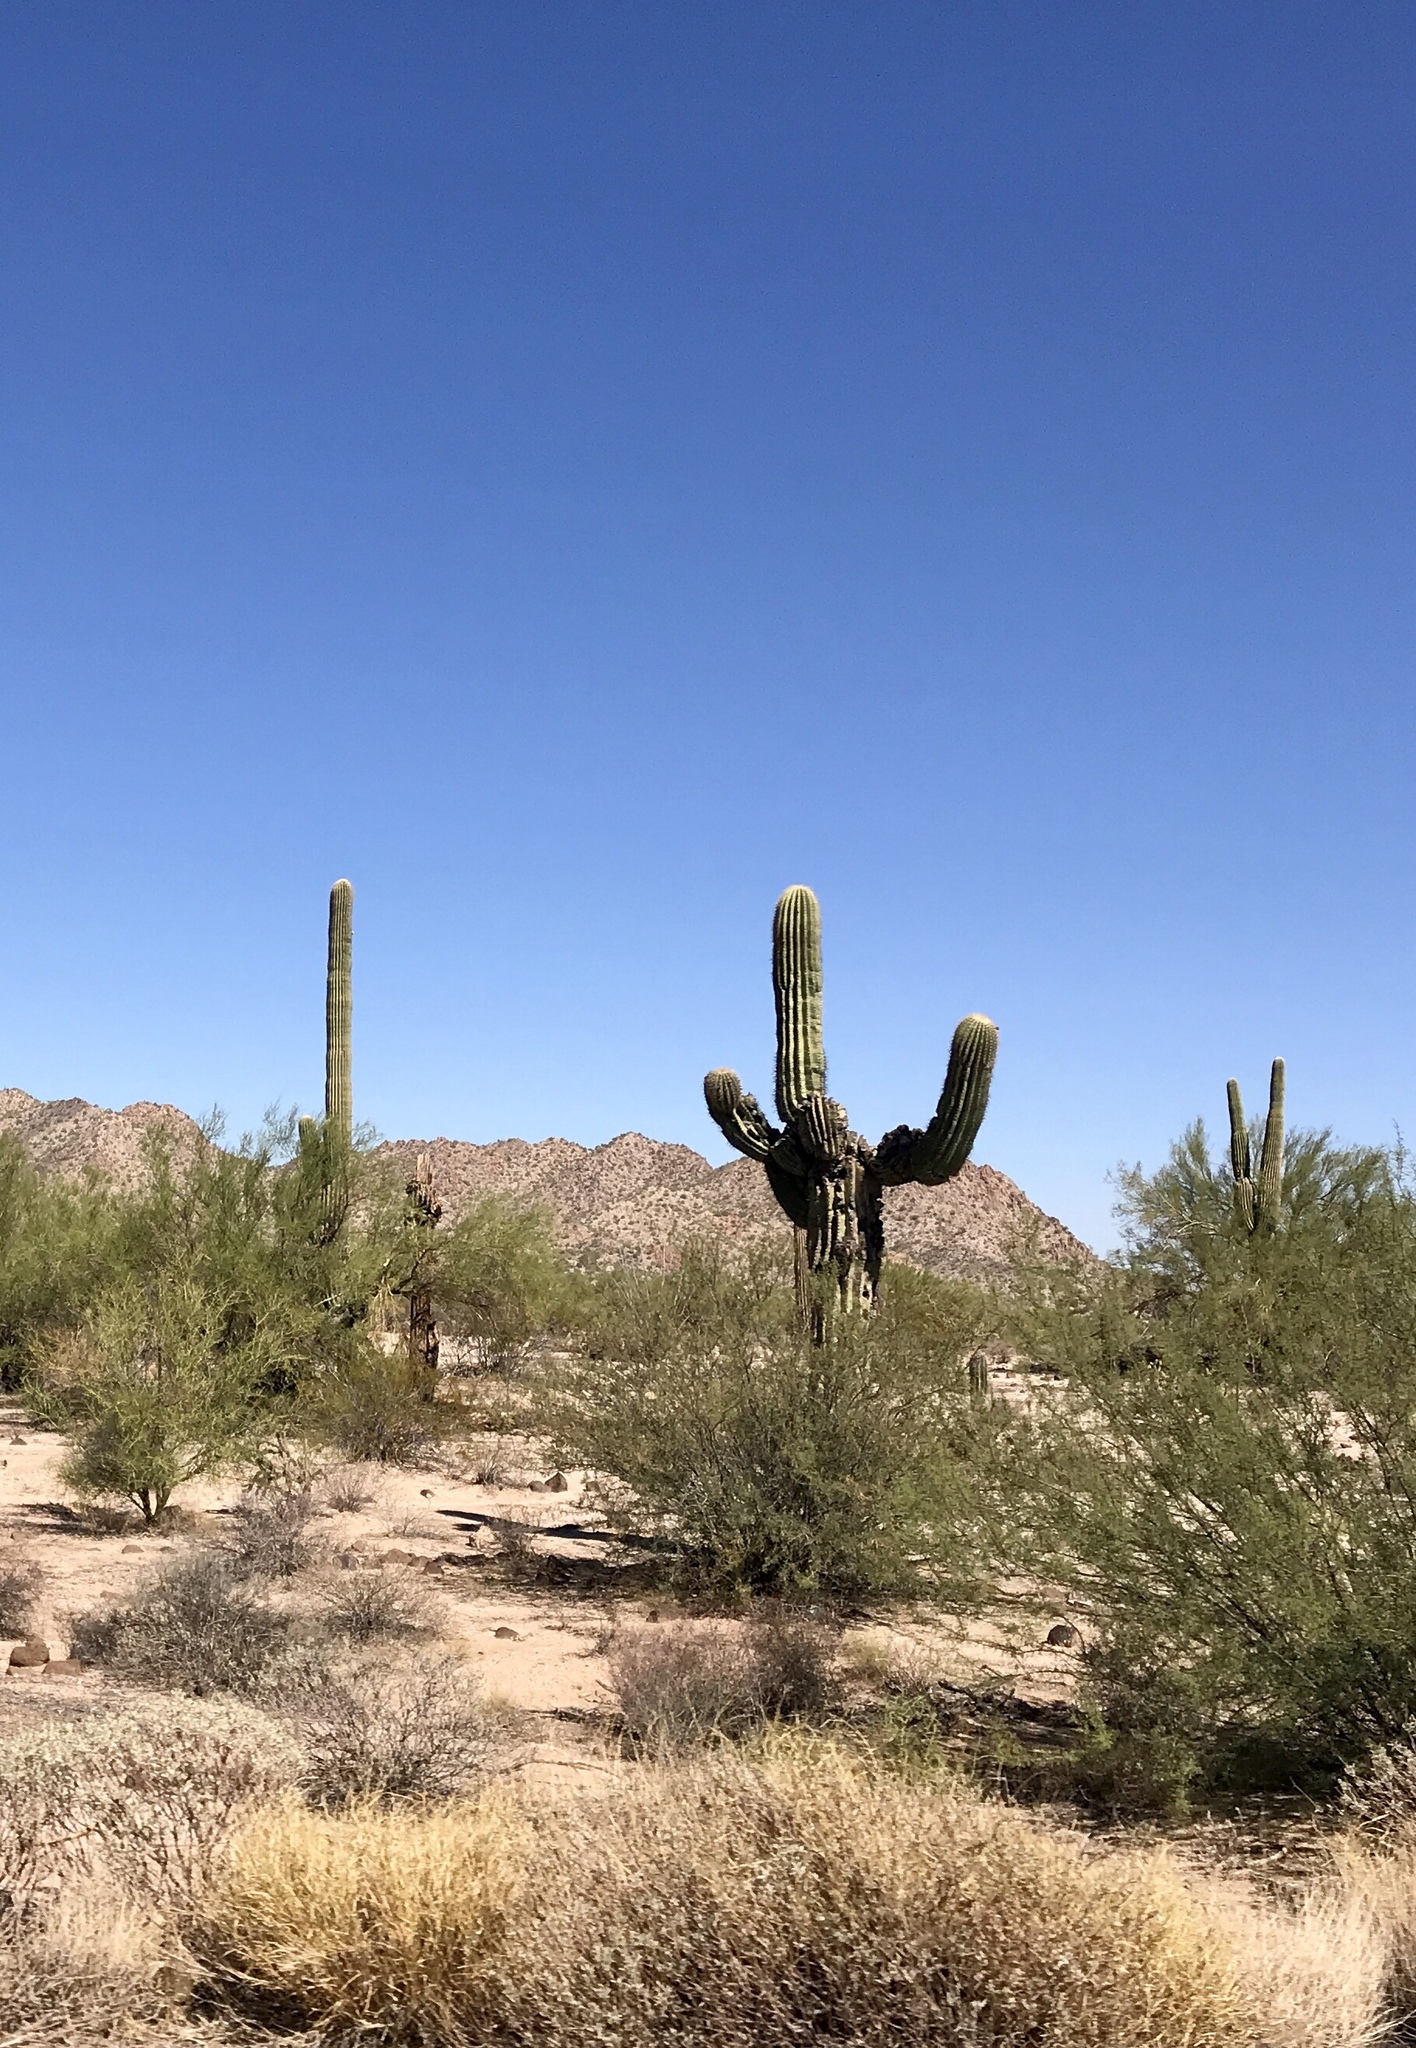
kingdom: Plantae
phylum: Tracheophyta
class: Magnoliopsida
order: Caryophyllales
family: Cactaceae
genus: Carnegiea
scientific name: Carnegiea gigantea
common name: Saguaro
